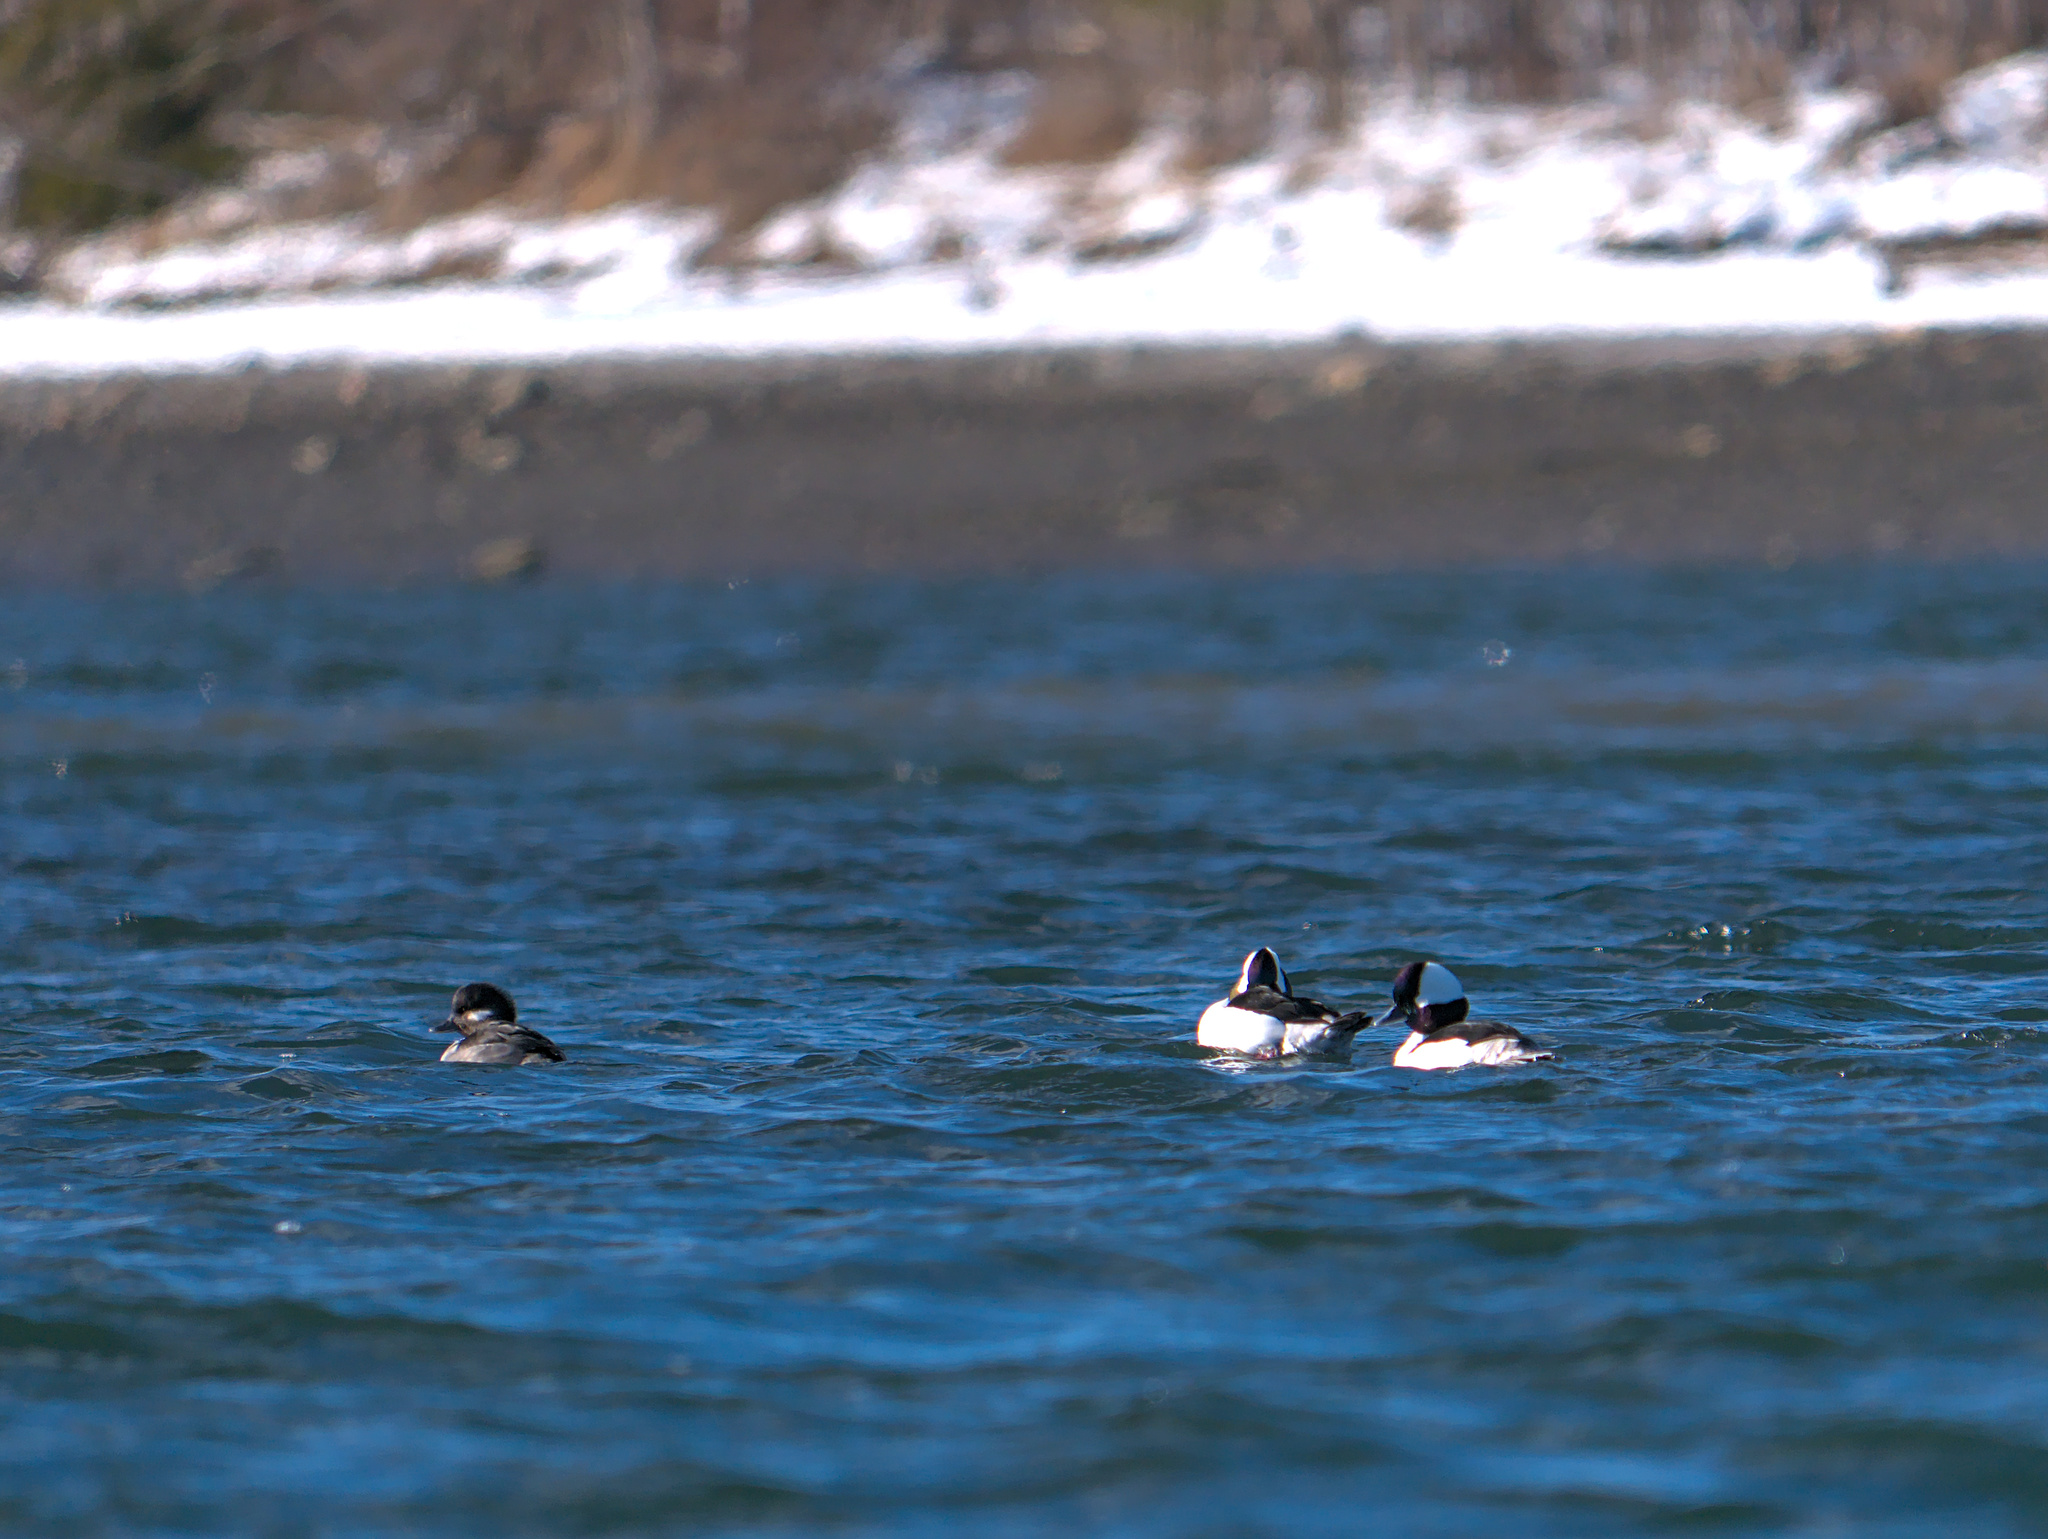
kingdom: Animalia
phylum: Chordata
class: Aves
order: Anseriformes
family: Anatidae
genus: Bucephala
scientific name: Bucephala albeola
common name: Bufflehead
